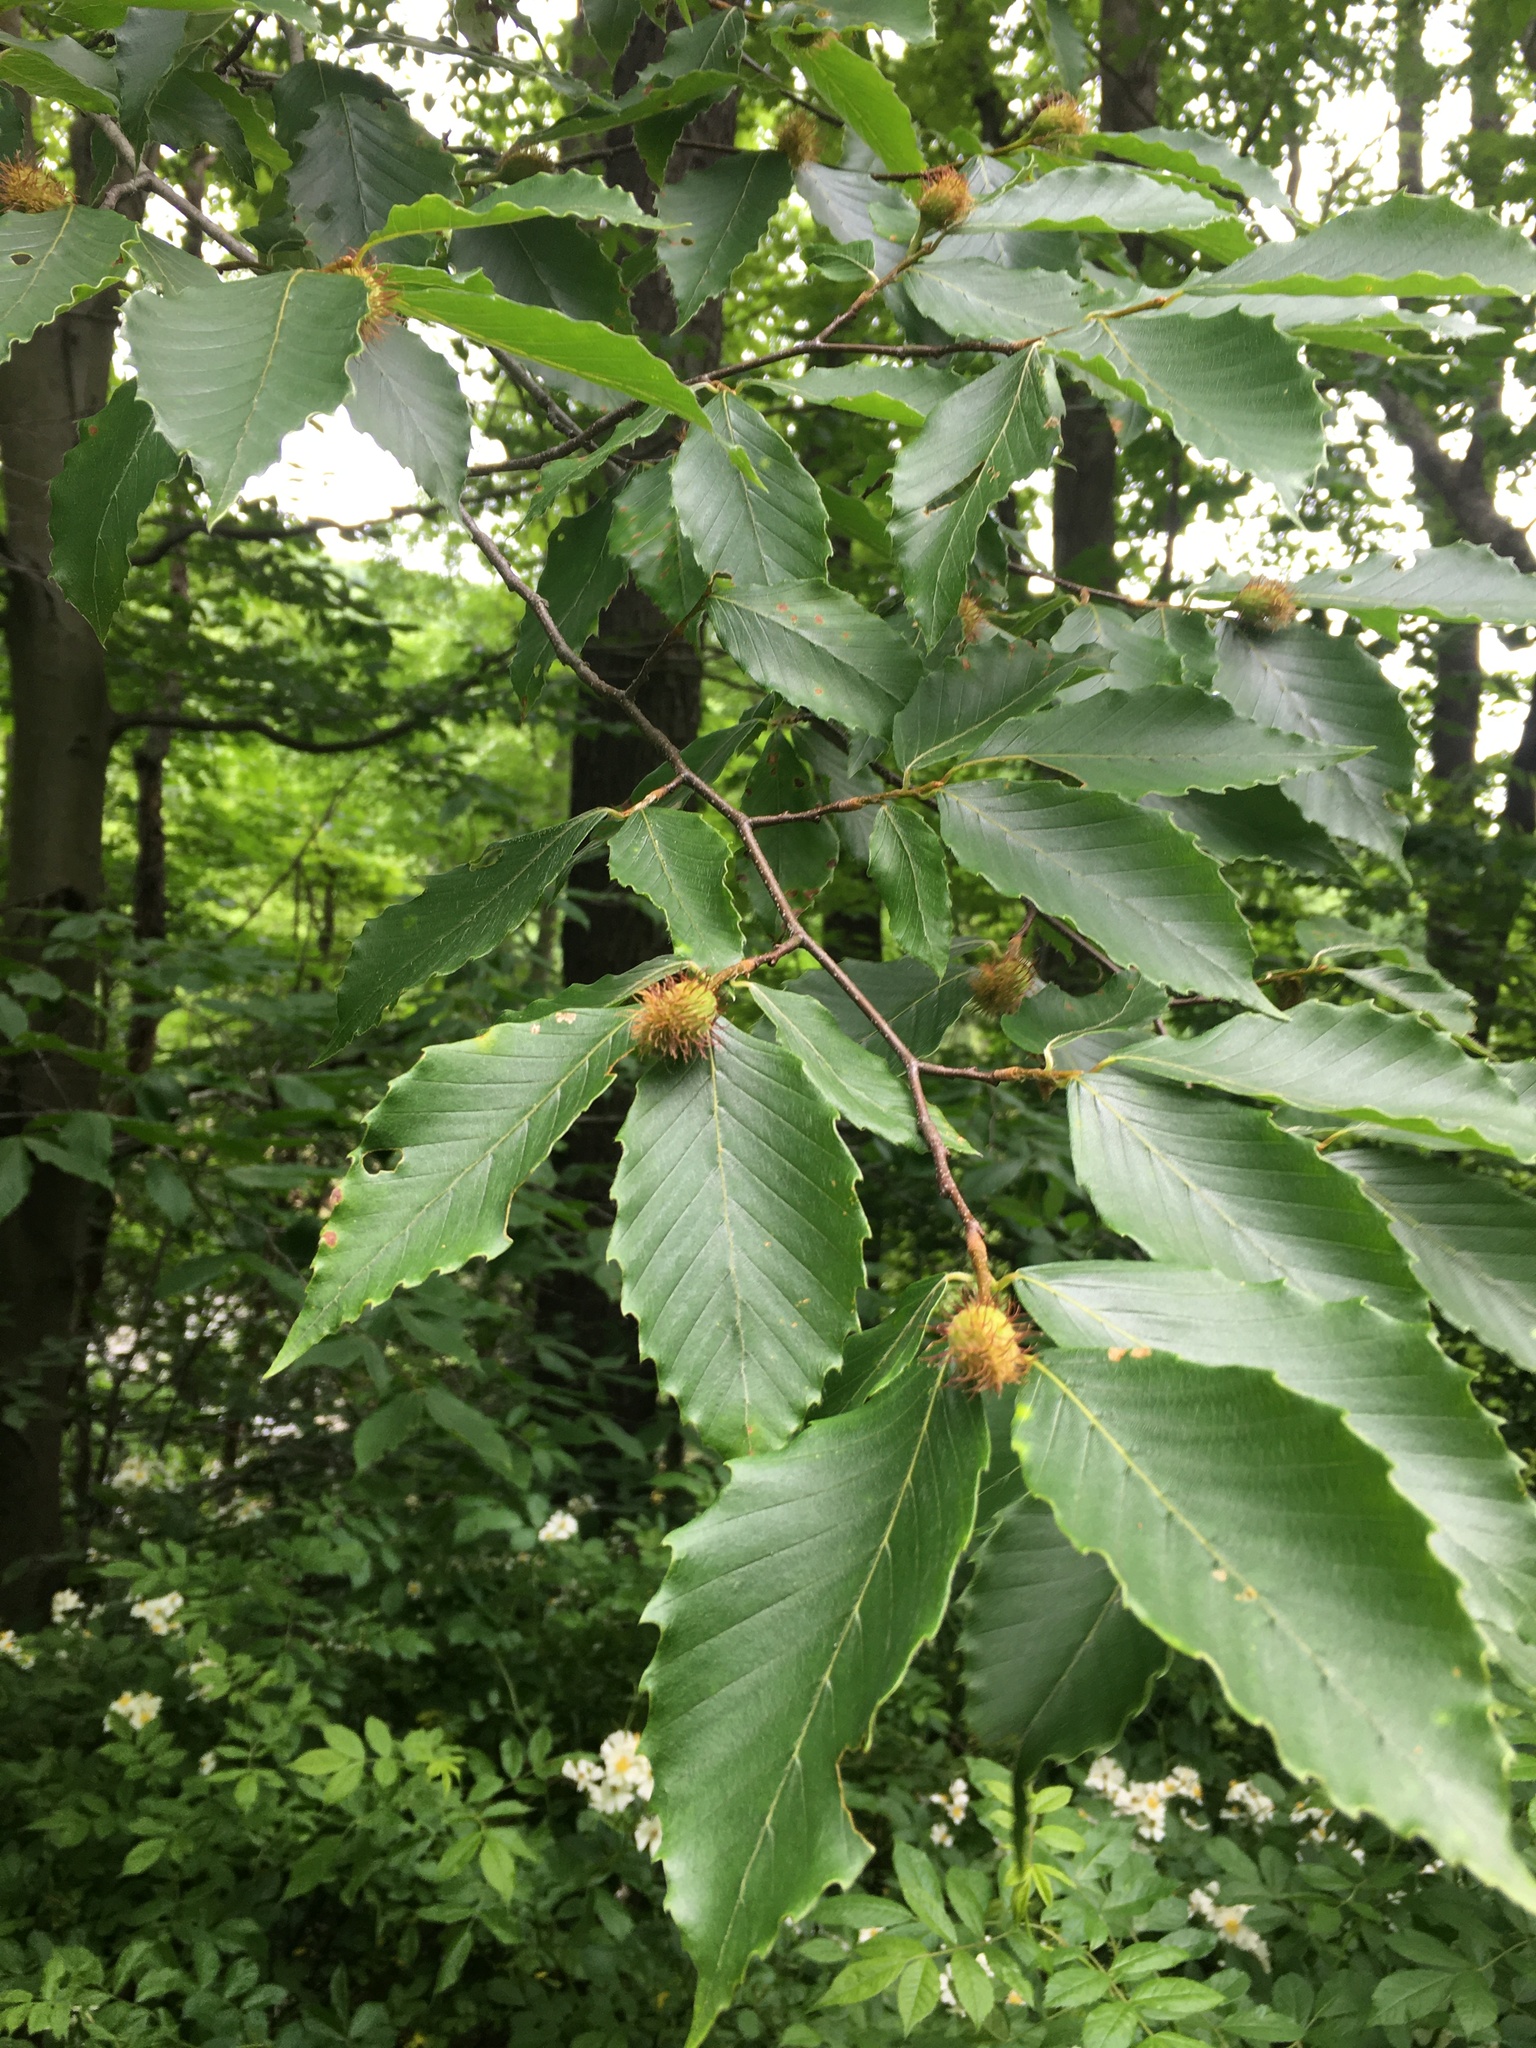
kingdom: Plantae
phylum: Tracheophyta
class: Magnoliopsida
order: Fagales
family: Fagaceae
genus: Fagus
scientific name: Fagus grandifolia
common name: American beech
